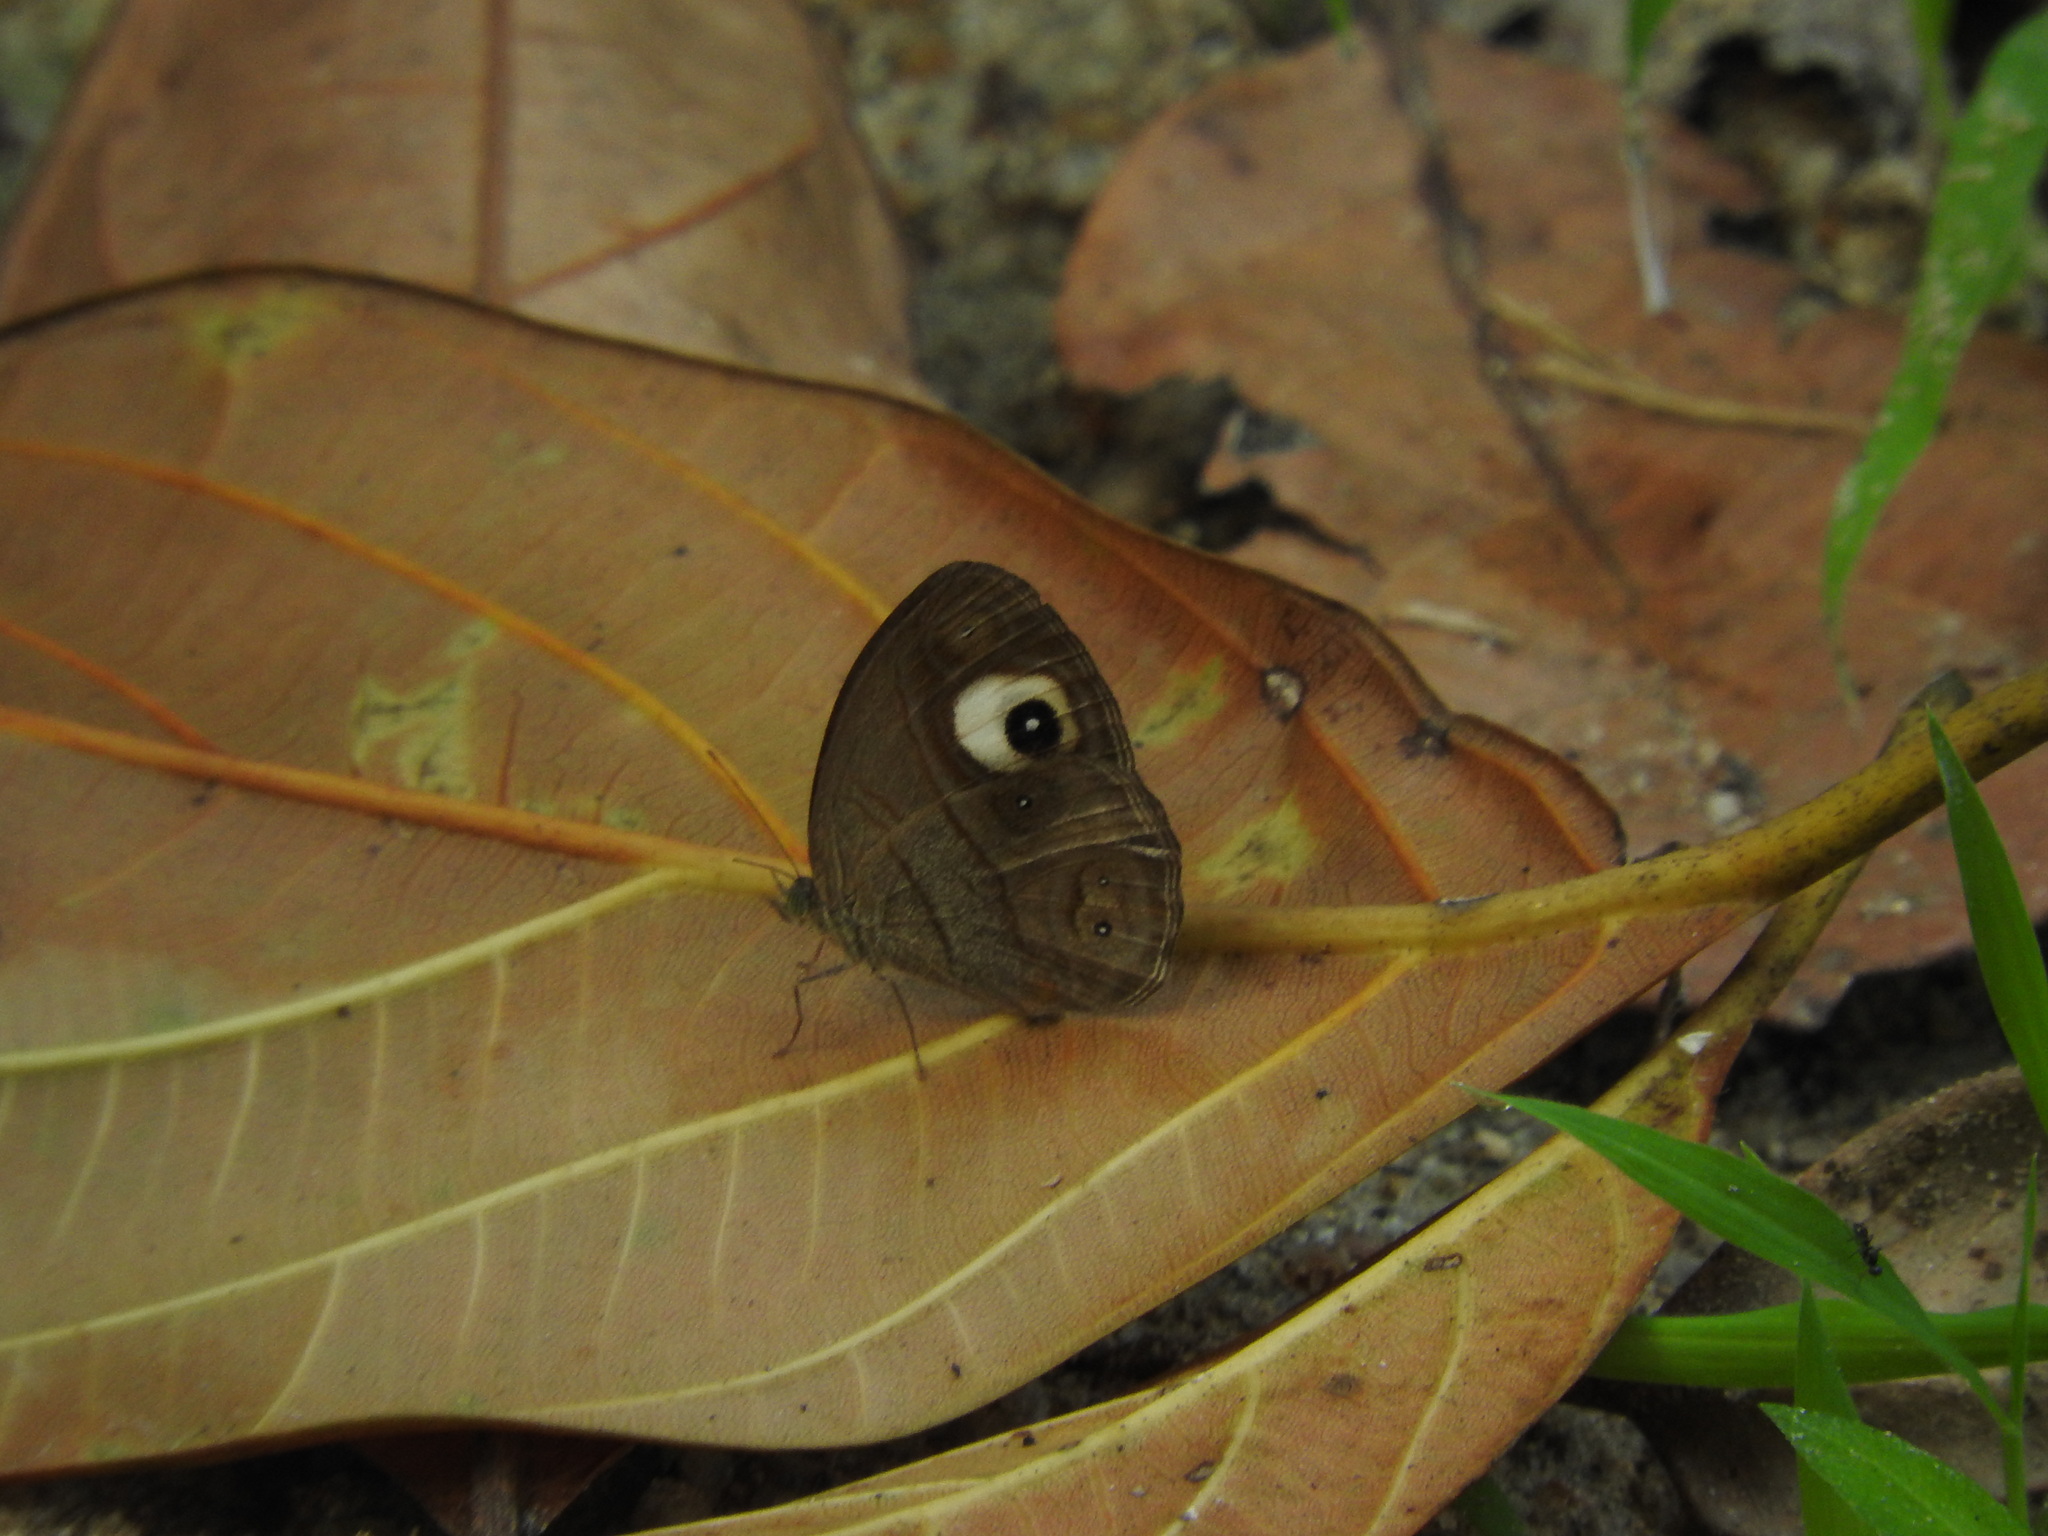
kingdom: Animalia
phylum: Arthropoda
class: Insecta
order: Lepidoptera
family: Nymphalidae
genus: Mycalesis
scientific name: Mycalesis patnia
